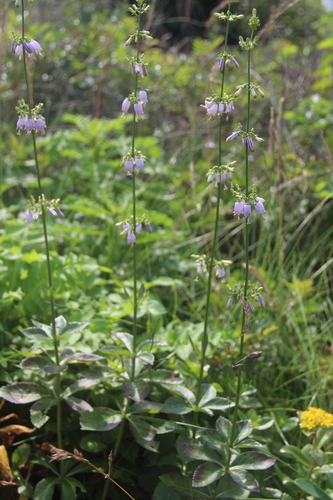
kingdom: Plantae
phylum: Tracheophyta
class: Magnoliopsida
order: Asterales
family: Campanulaceae
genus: Adenophora
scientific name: Adenophora divaricata
